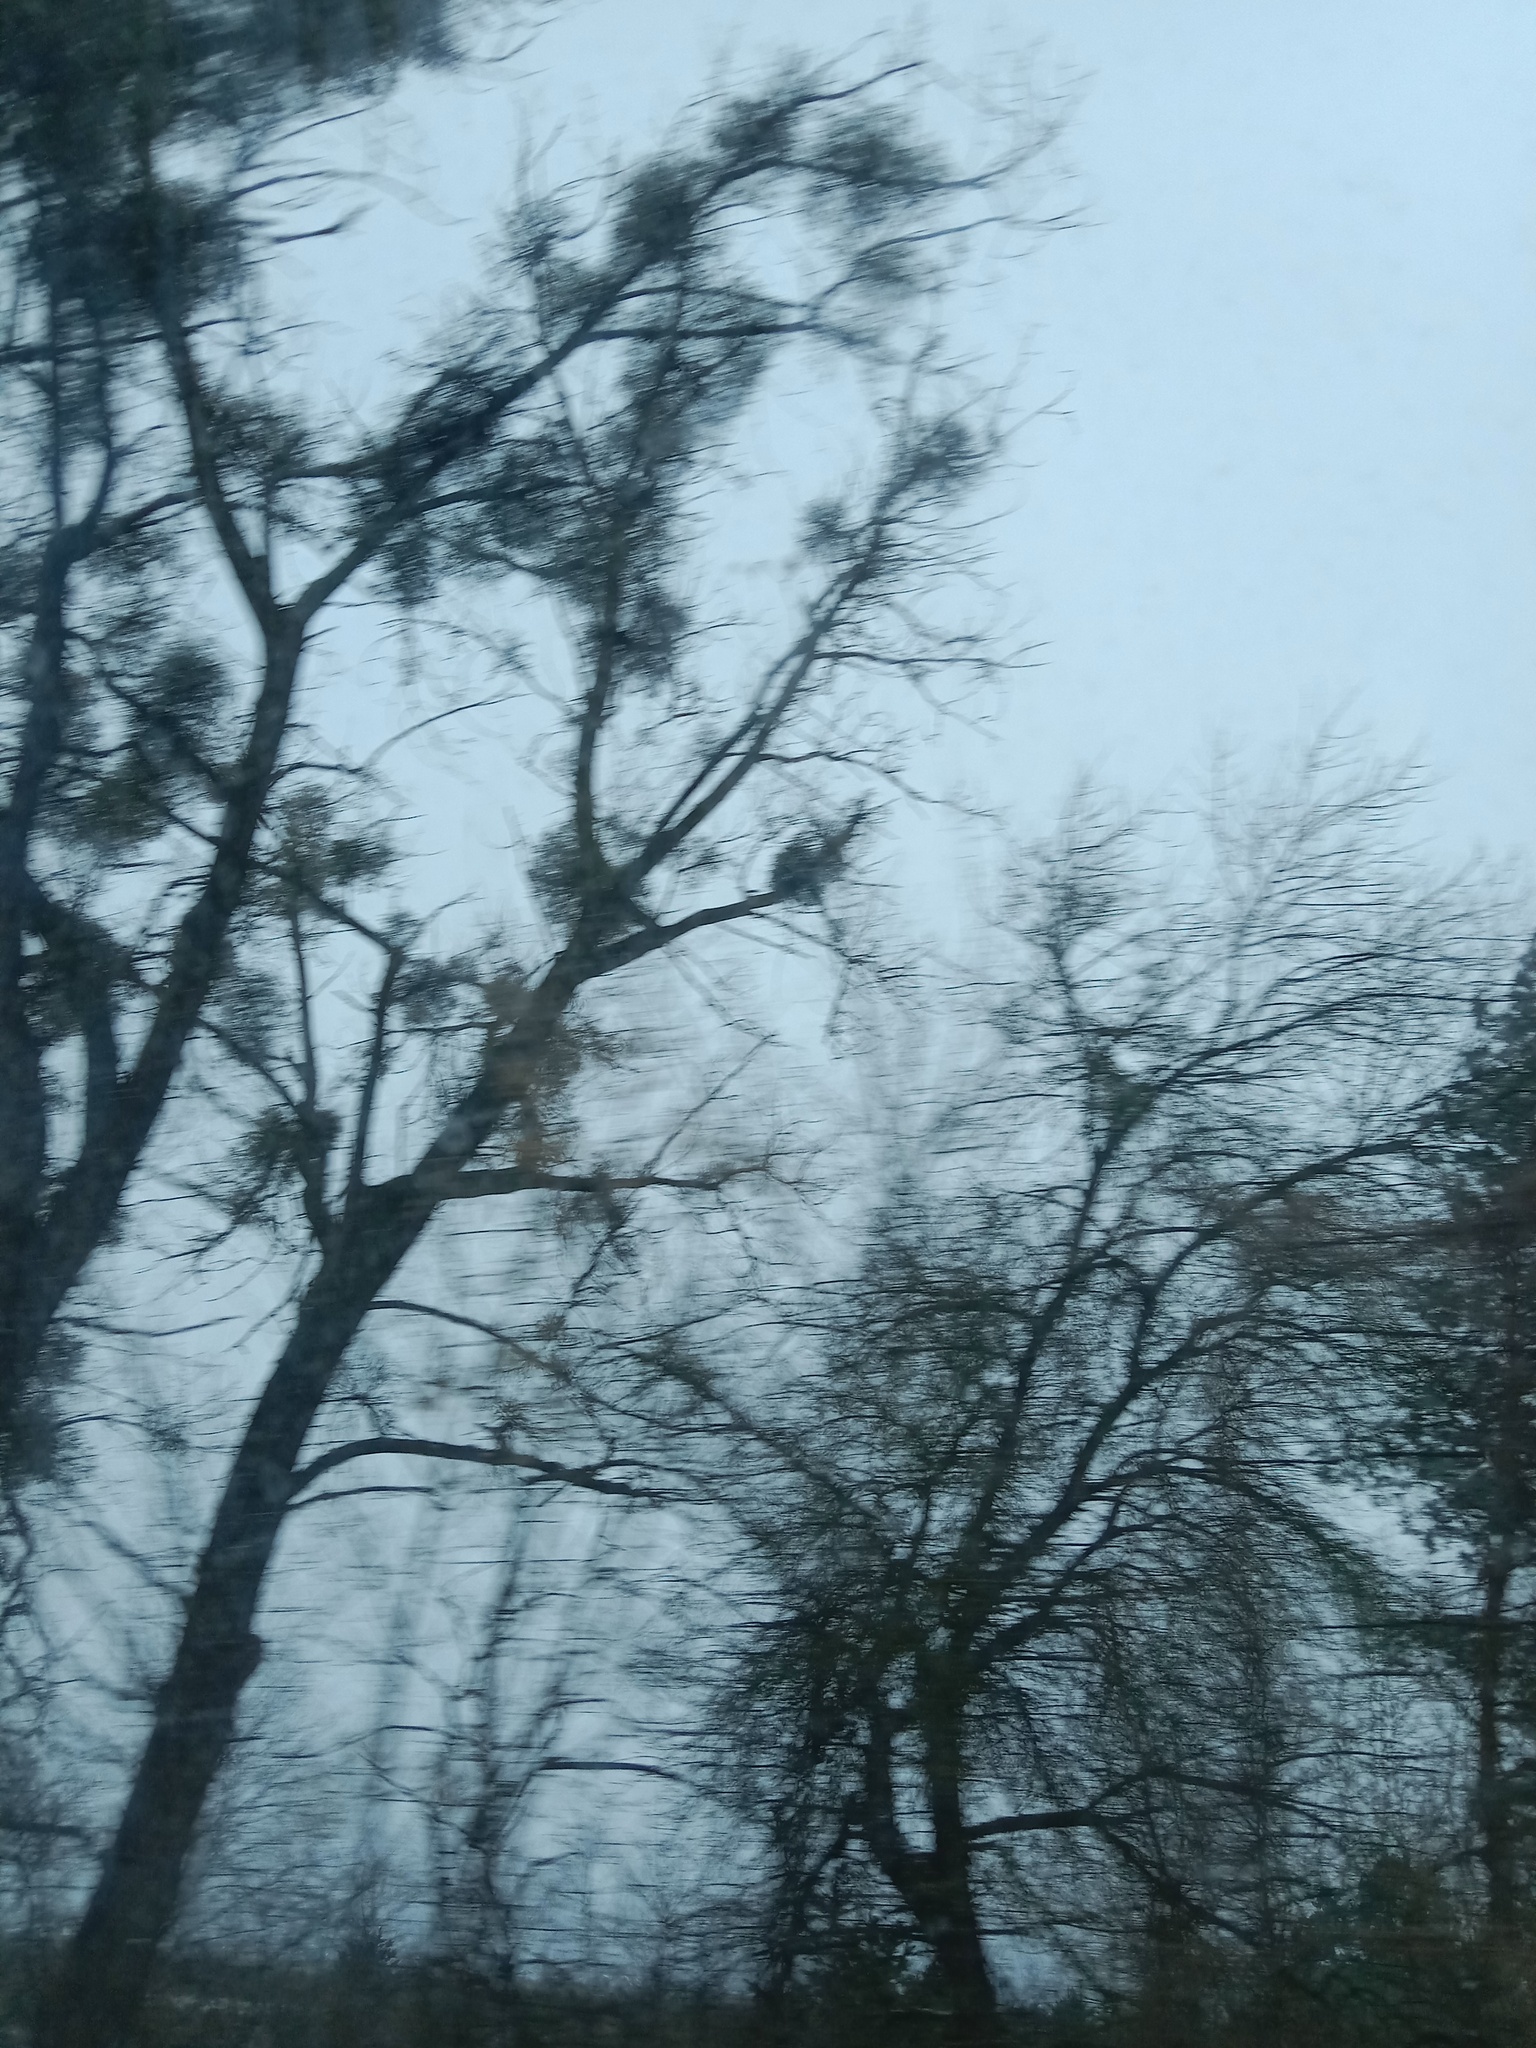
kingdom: Plantae
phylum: Tracheophyta
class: Magnoliopsida
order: Santalales
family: Viscaceae
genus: Viscum
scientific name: Viscum album
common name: Mistletoe
